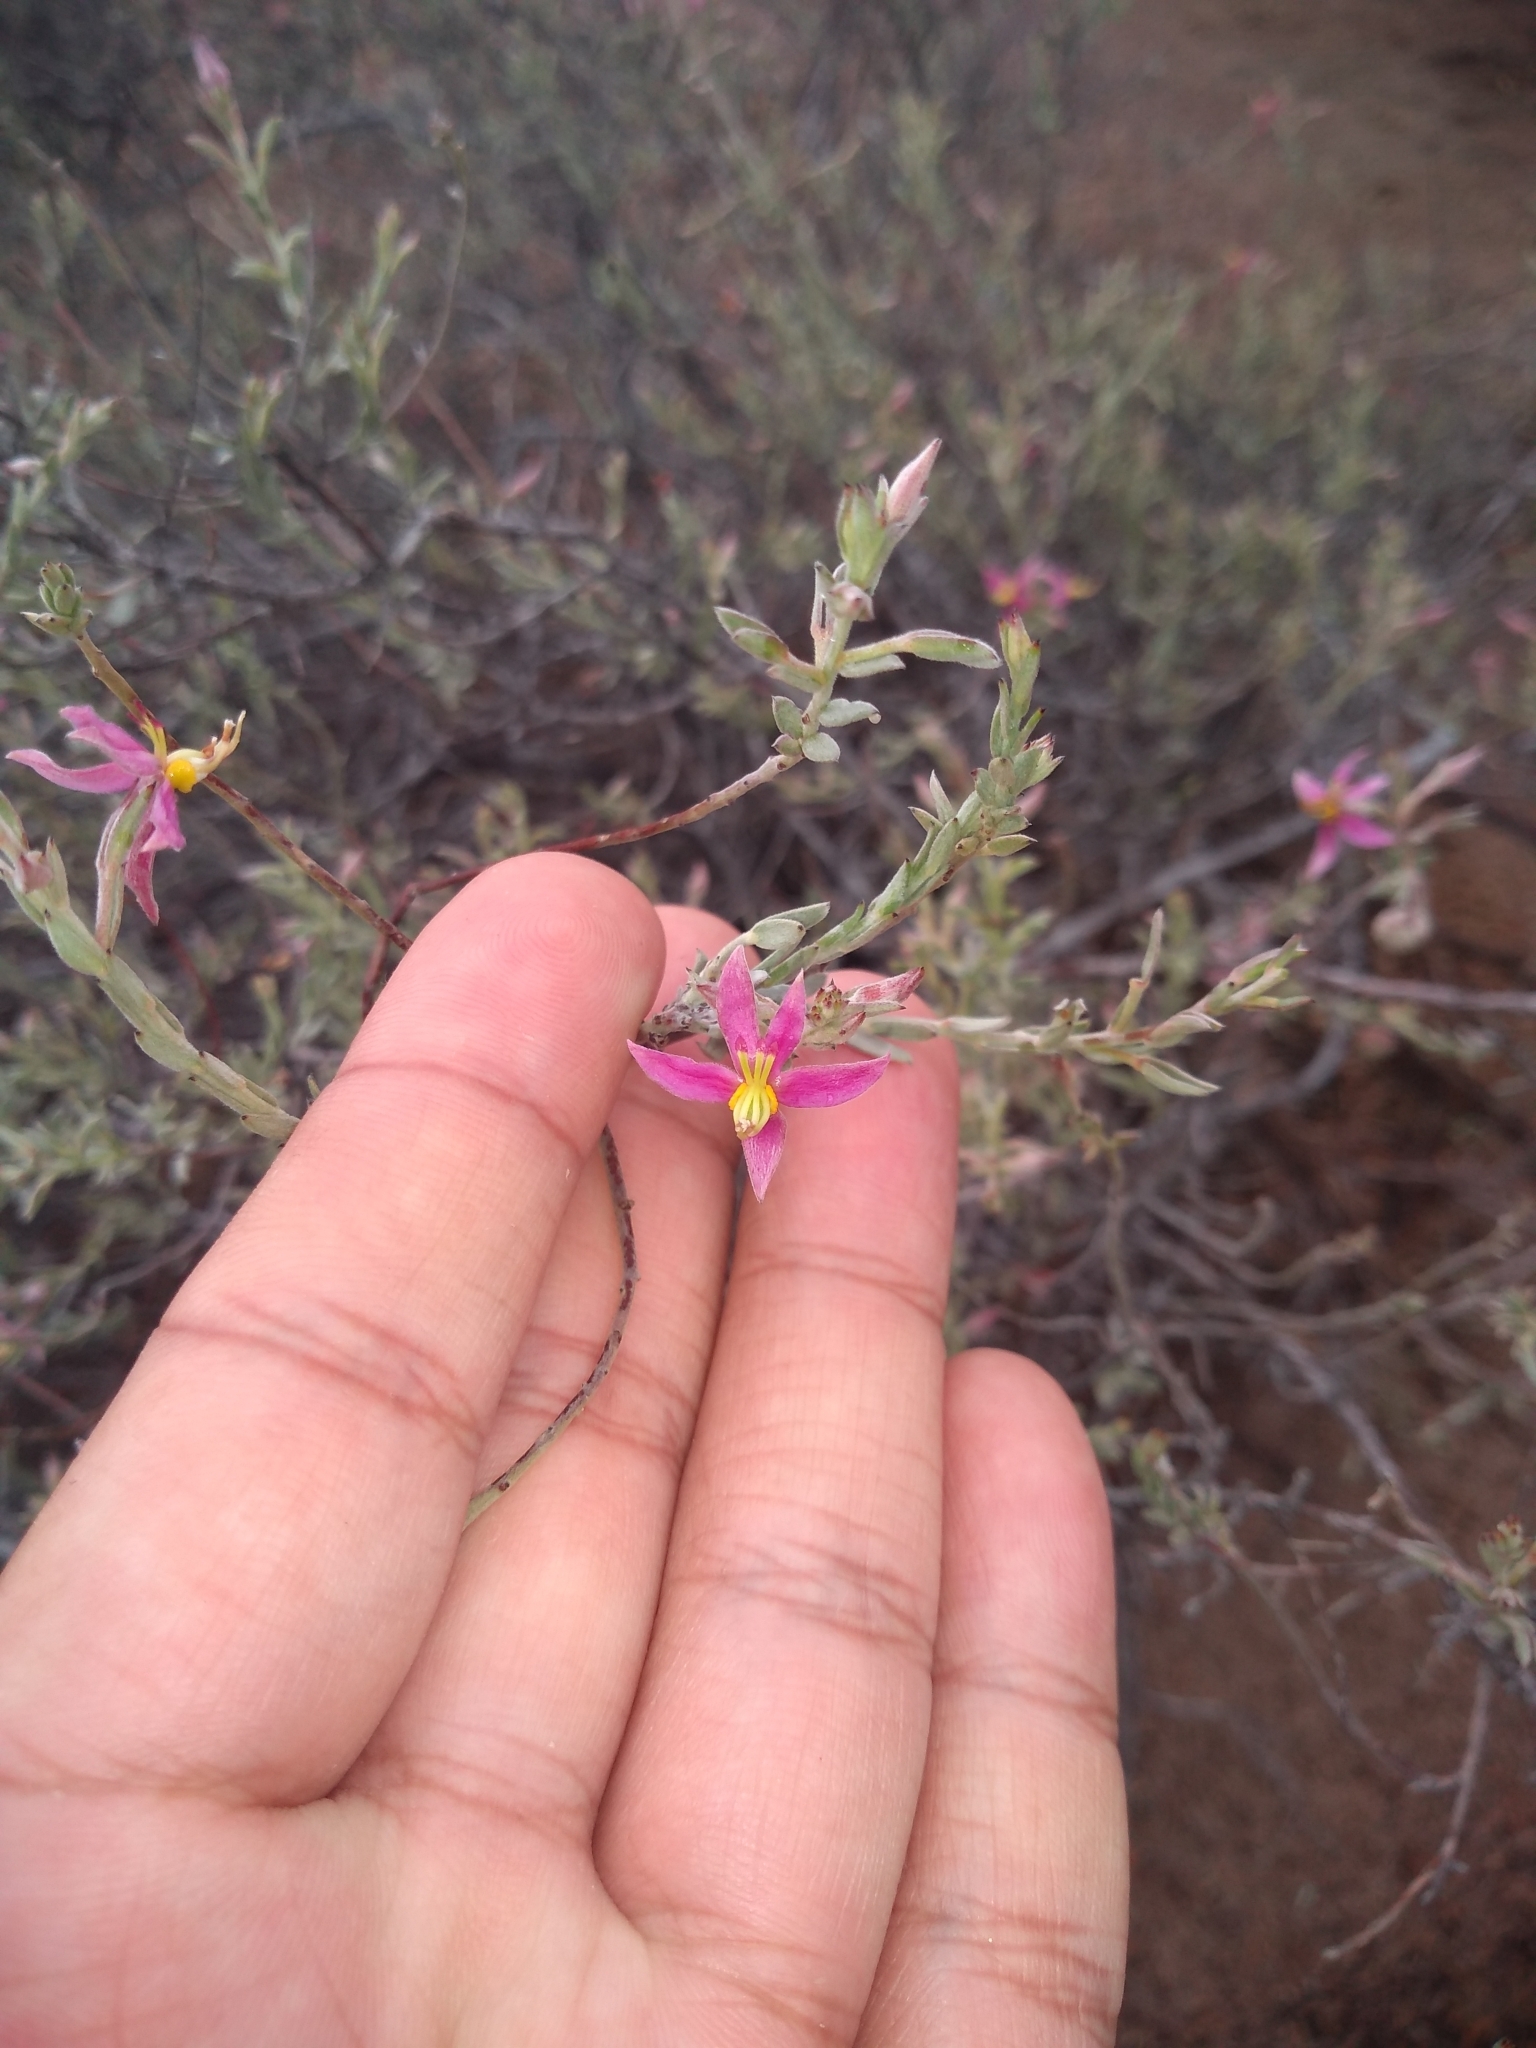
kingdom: Plantae
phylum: Tracheophyta
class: Magnoliopsida
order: Zygophyllales
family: Krameriaceae
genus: Krameria
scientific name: Krameria bicolor
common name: White ratany
